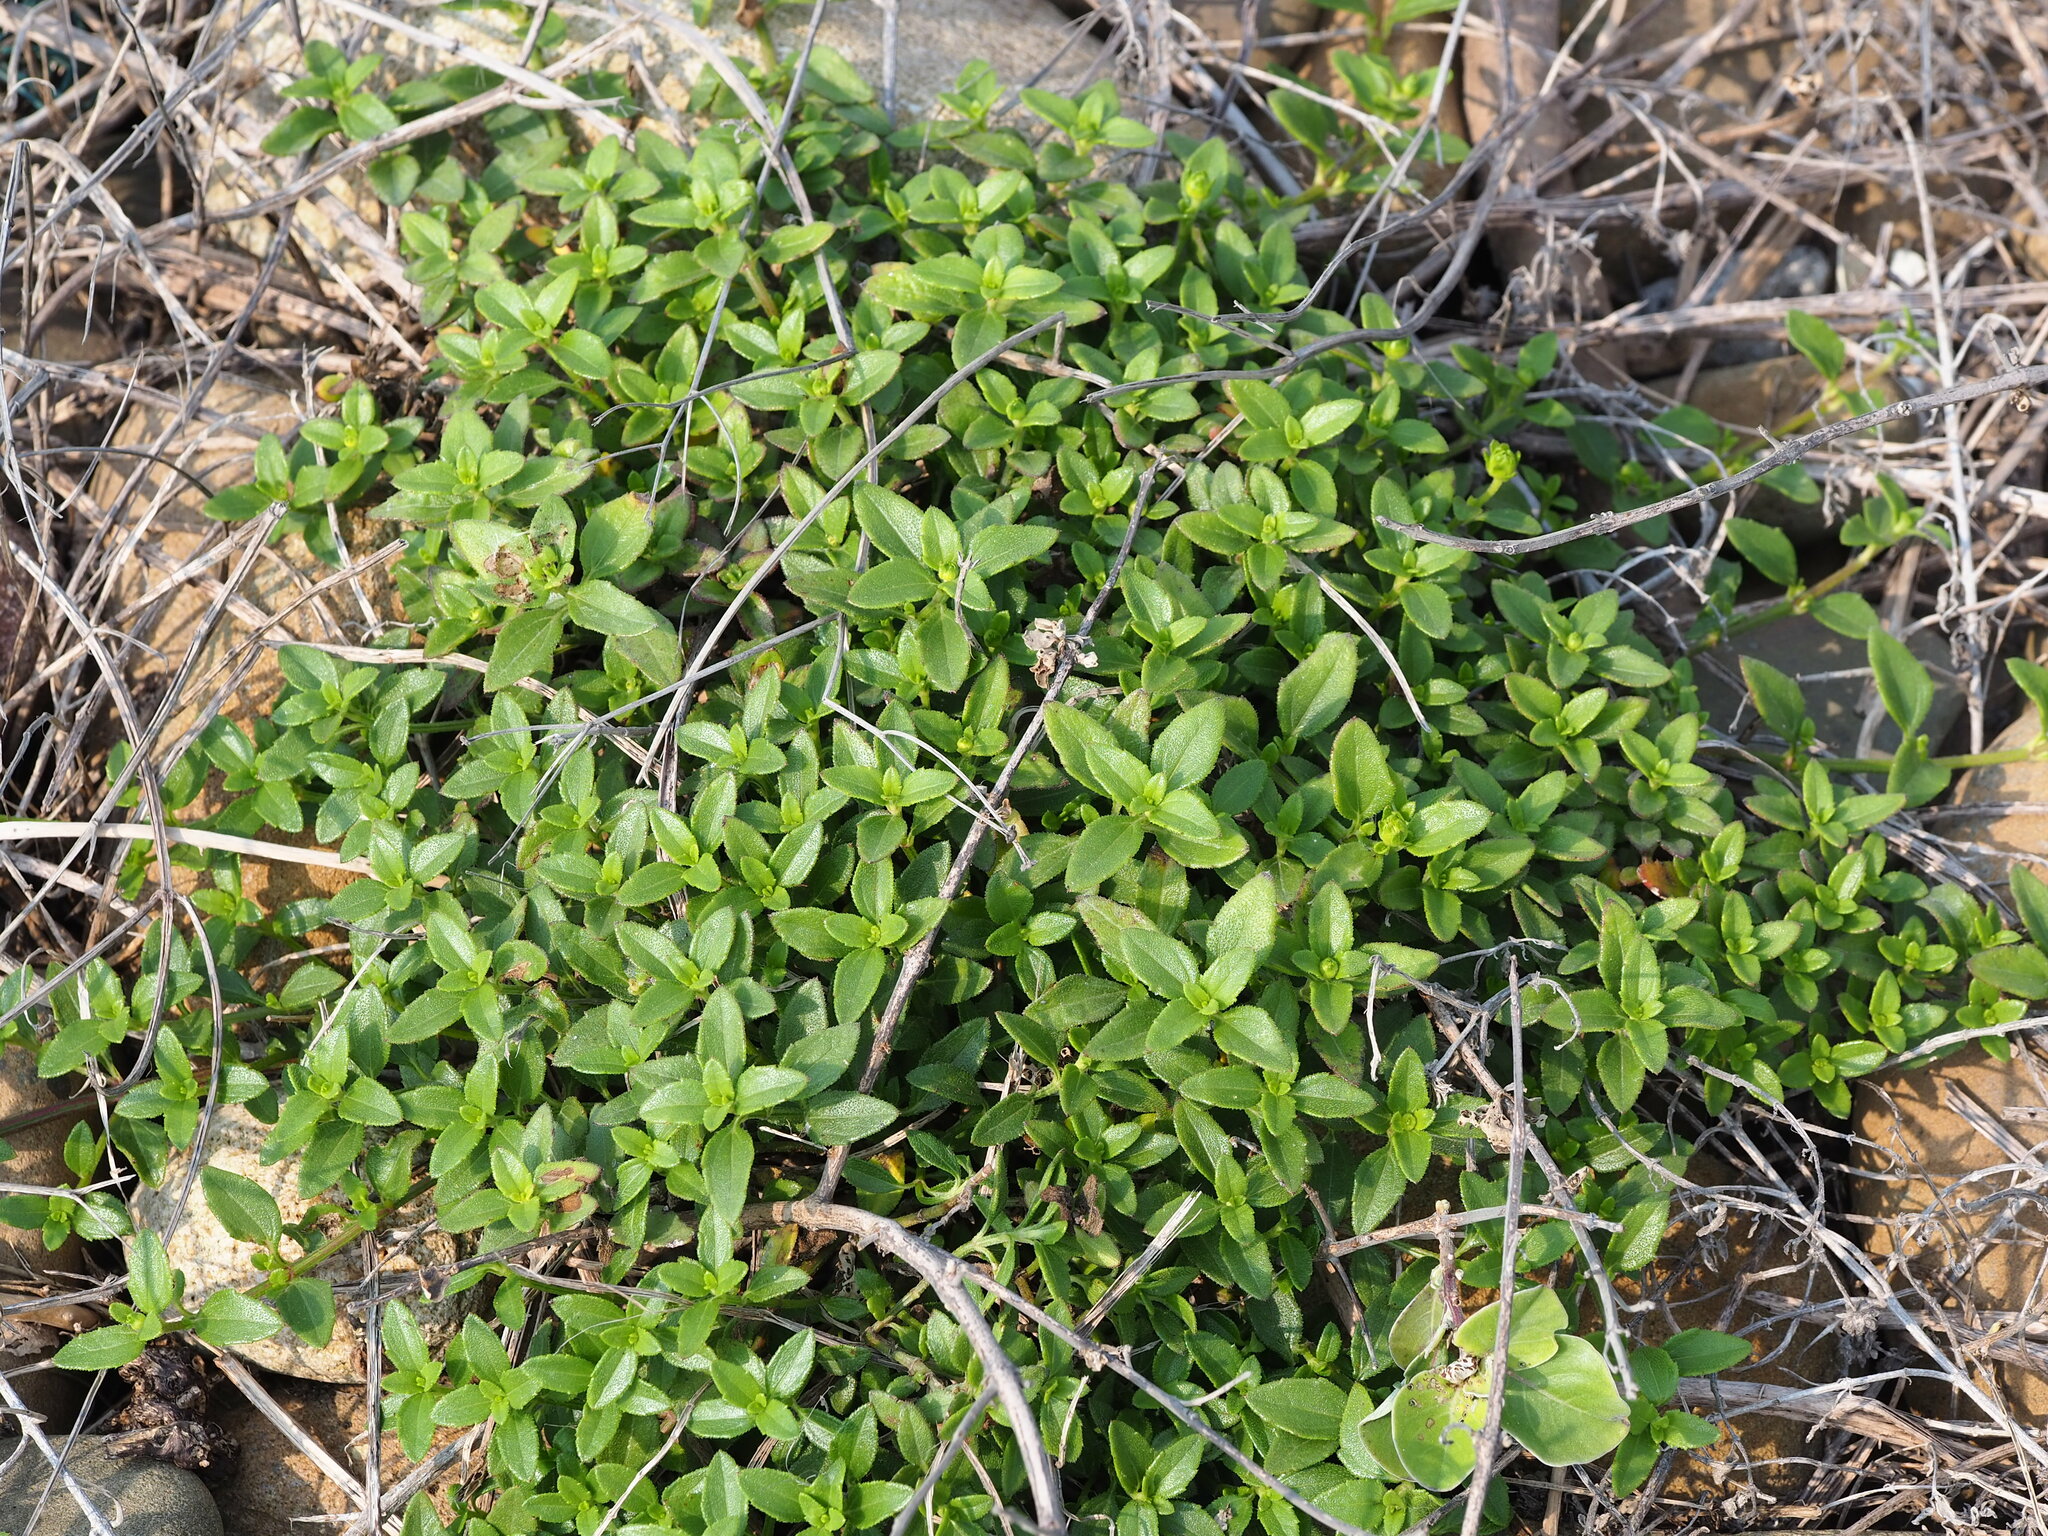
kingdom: Plantae
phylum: Tracheophyta
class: Magnoliopsida
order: Asterales
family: Asteraceae
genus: Melanthera
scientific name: Melanthera prostrata
